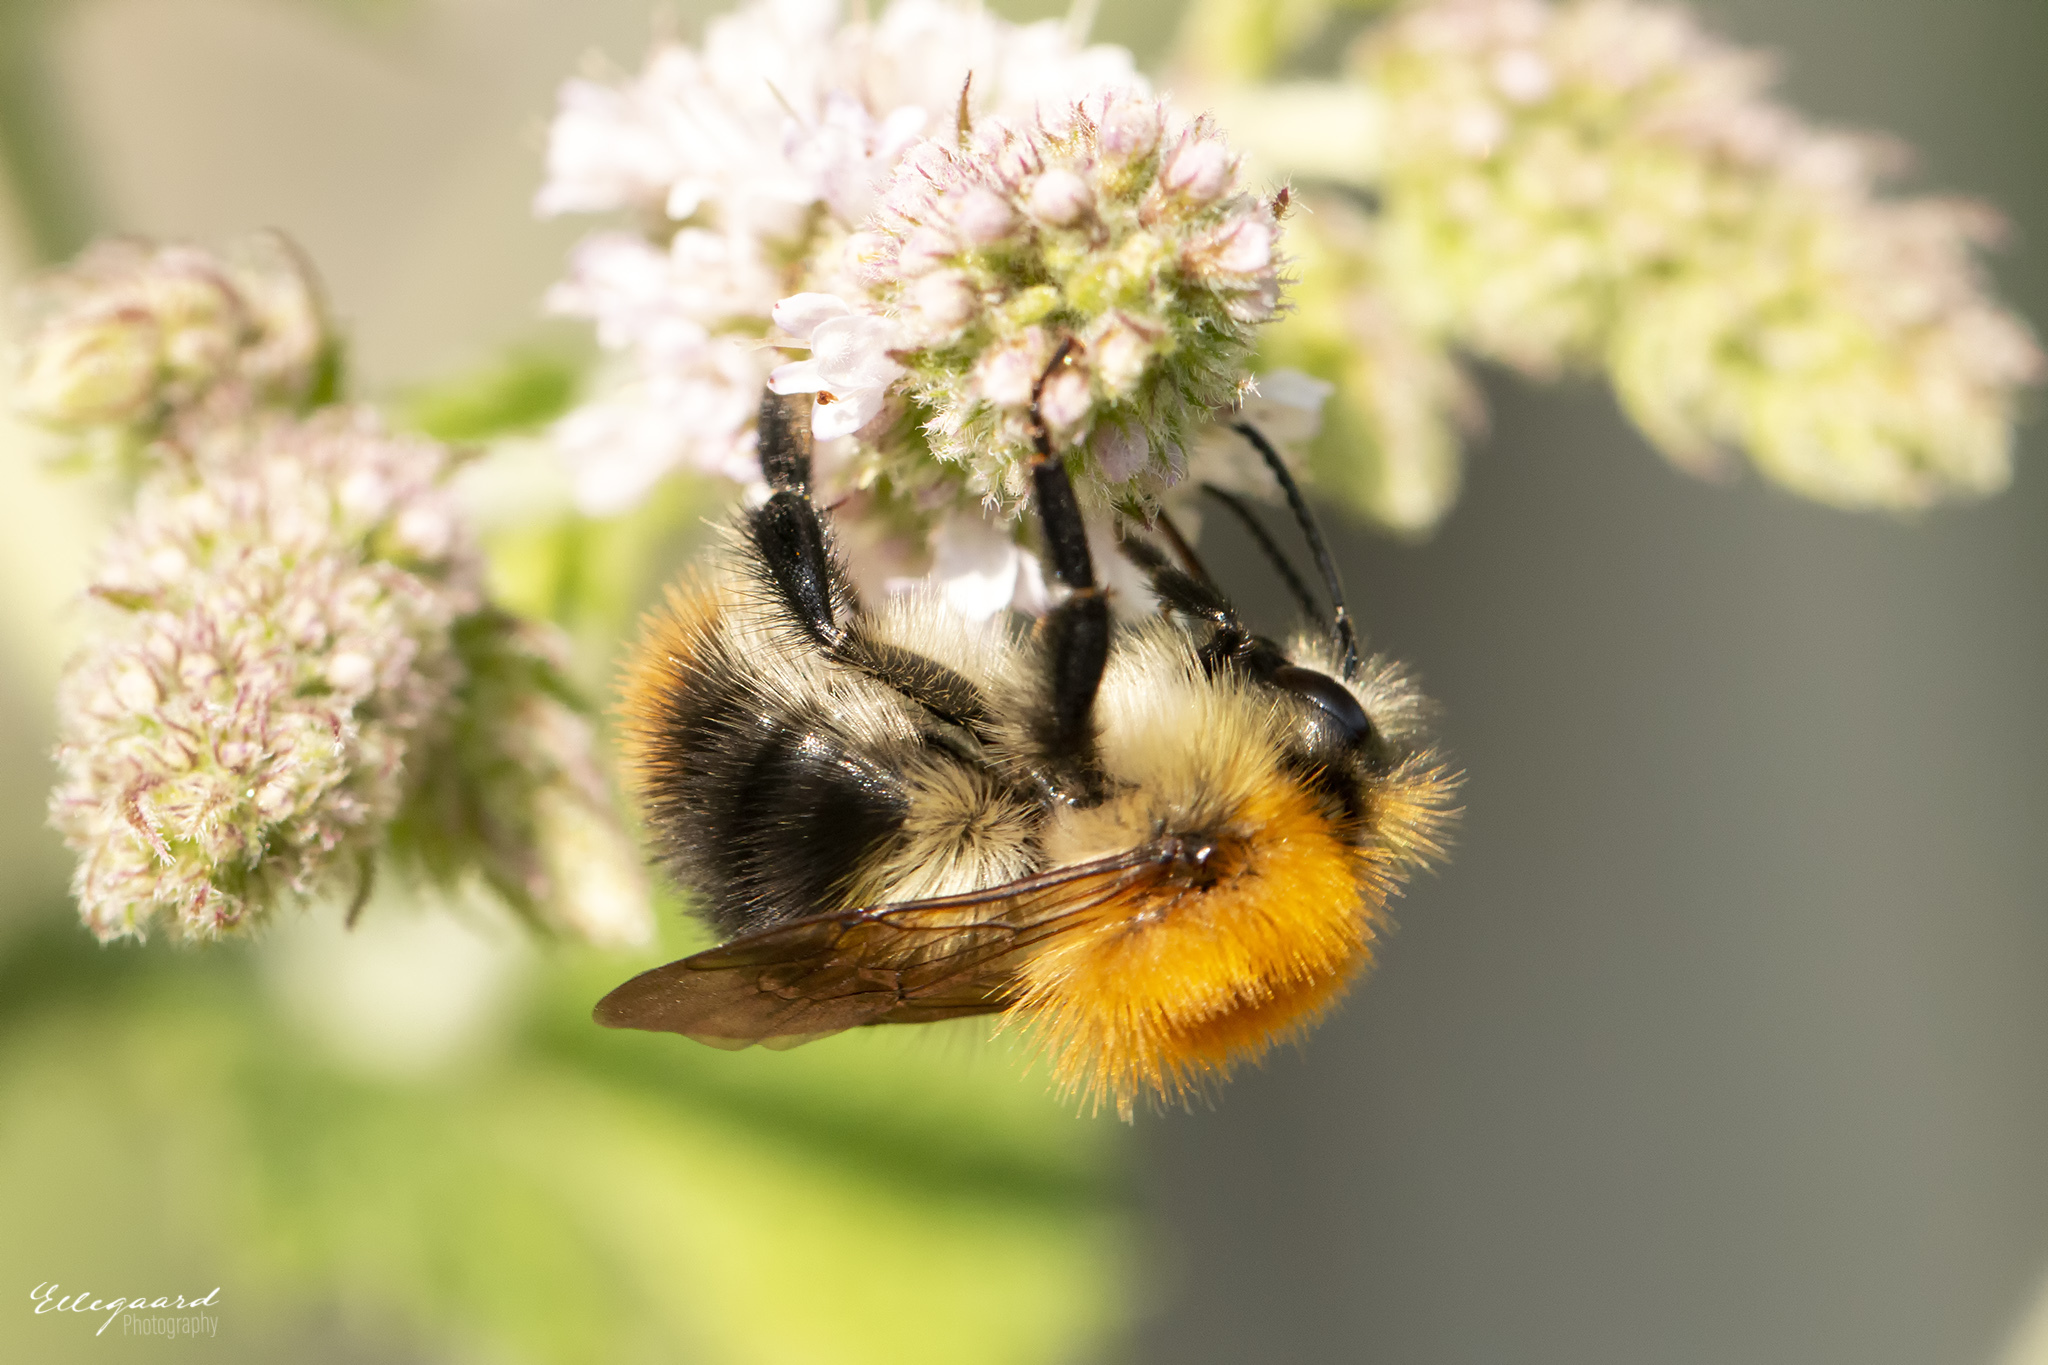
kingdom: Animalia
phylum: Arthropoda
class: Insecta
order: Hymenoptera
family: Apidae
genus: Bombus
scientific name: Bombus pascuorum
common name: Common carder bee
